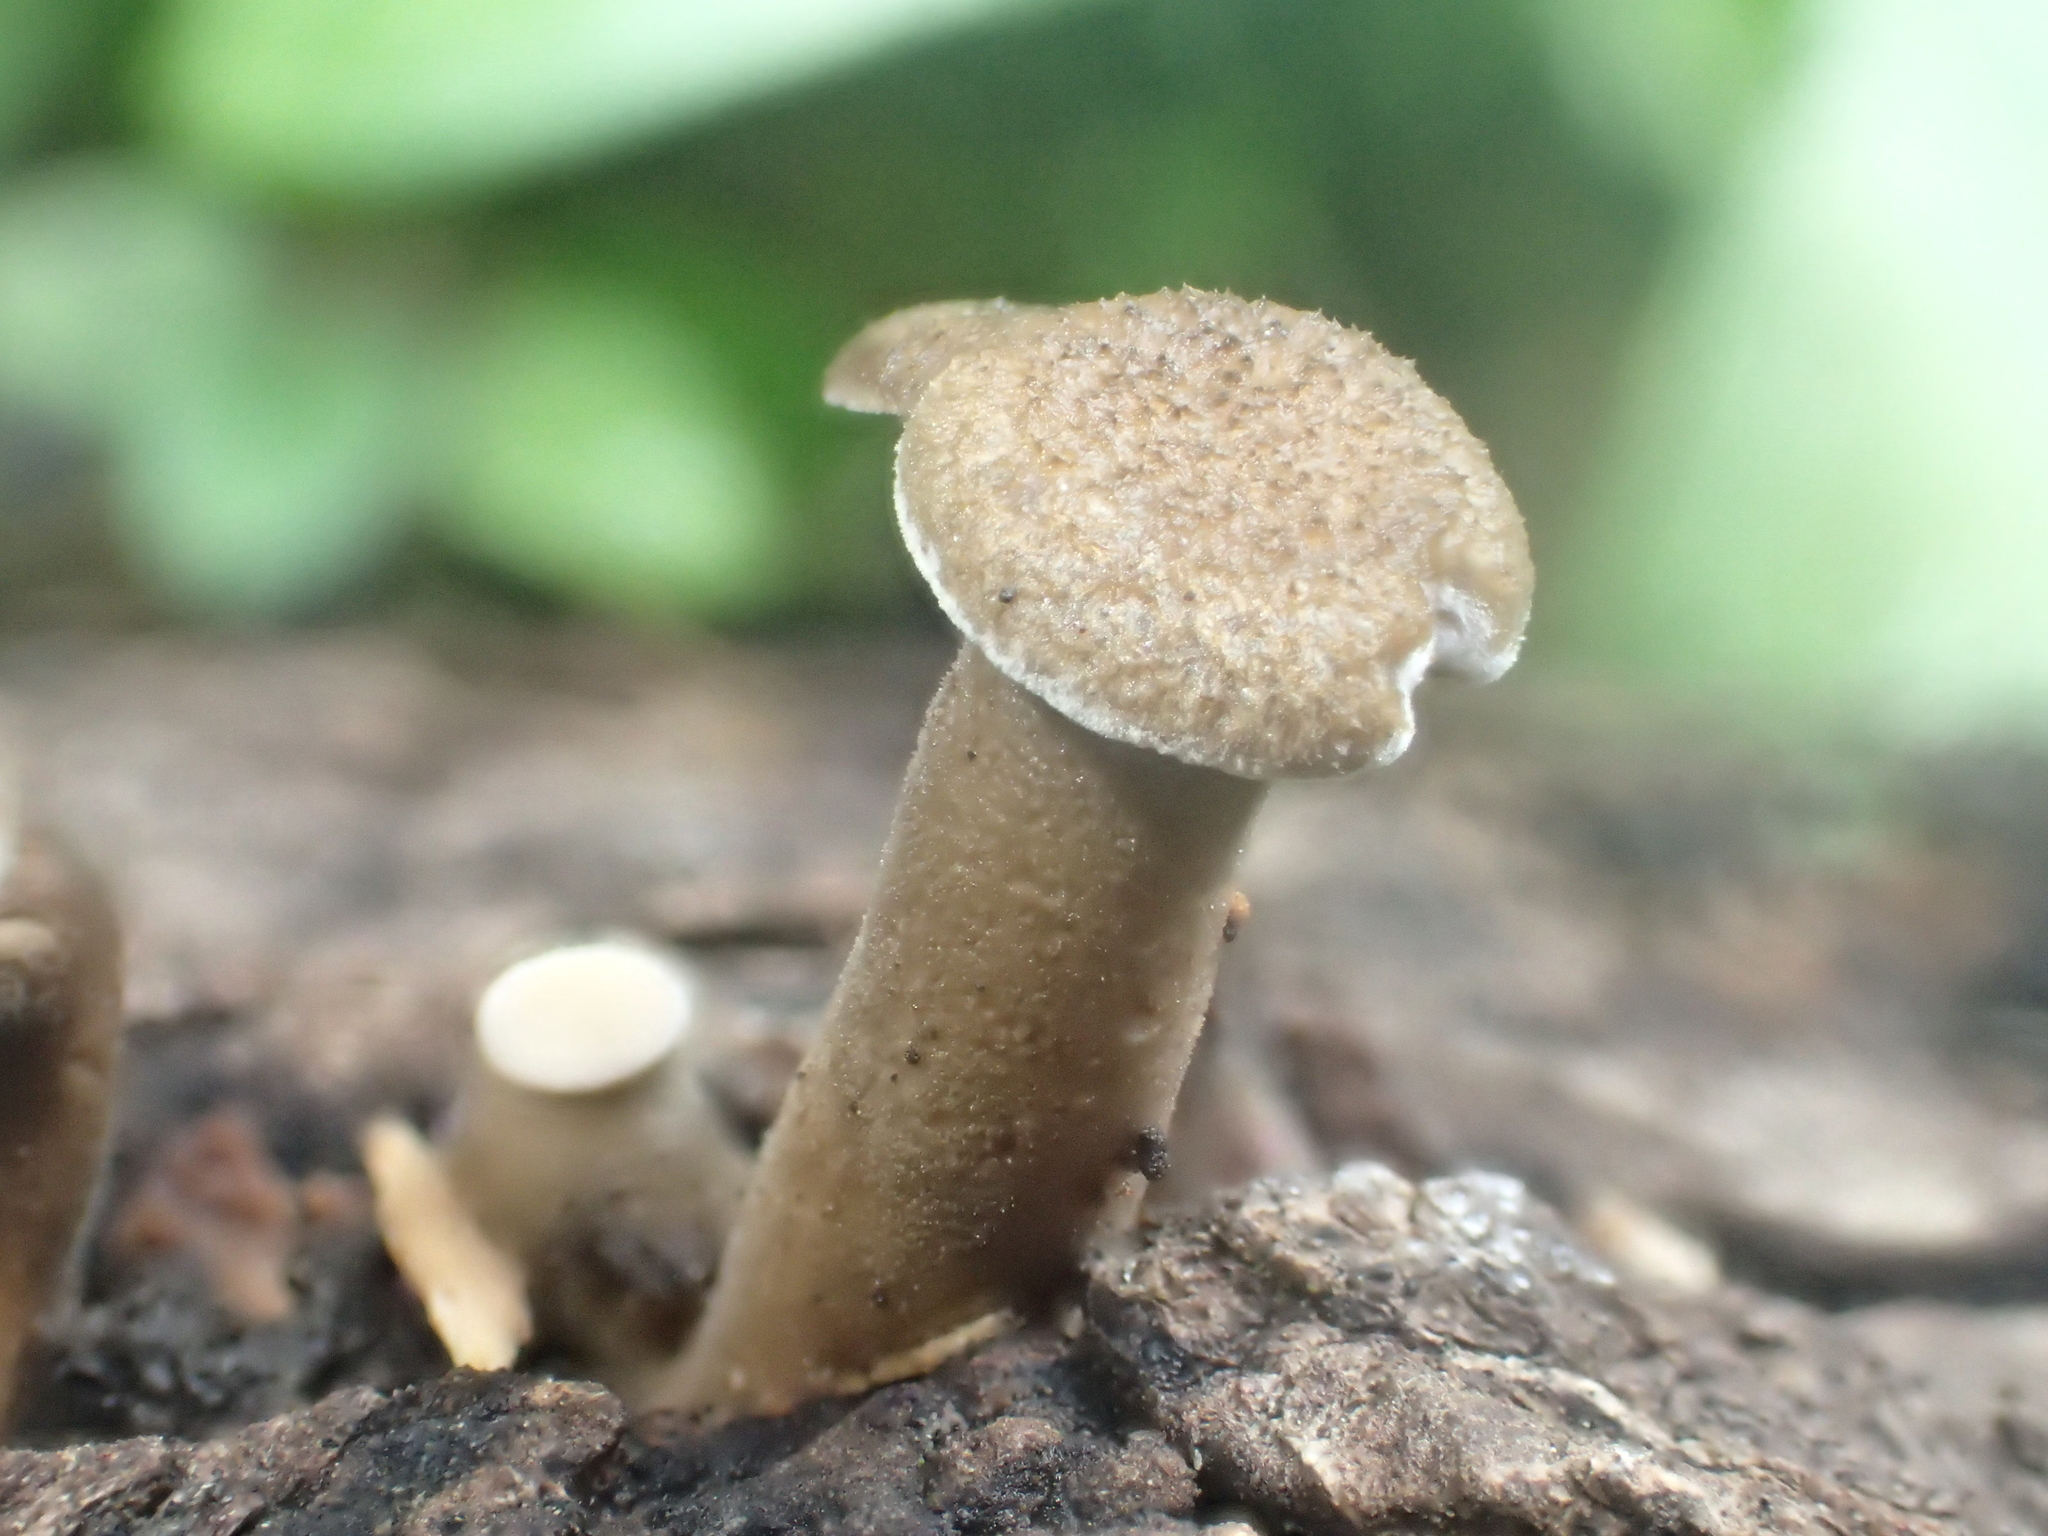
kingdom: Fungi
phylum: Basidiomycota
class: Agaricomycetes
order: Polyporales
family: Polyporaceae
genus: Lentinus
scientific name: Lentinus arcularius
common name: Spring polypore
